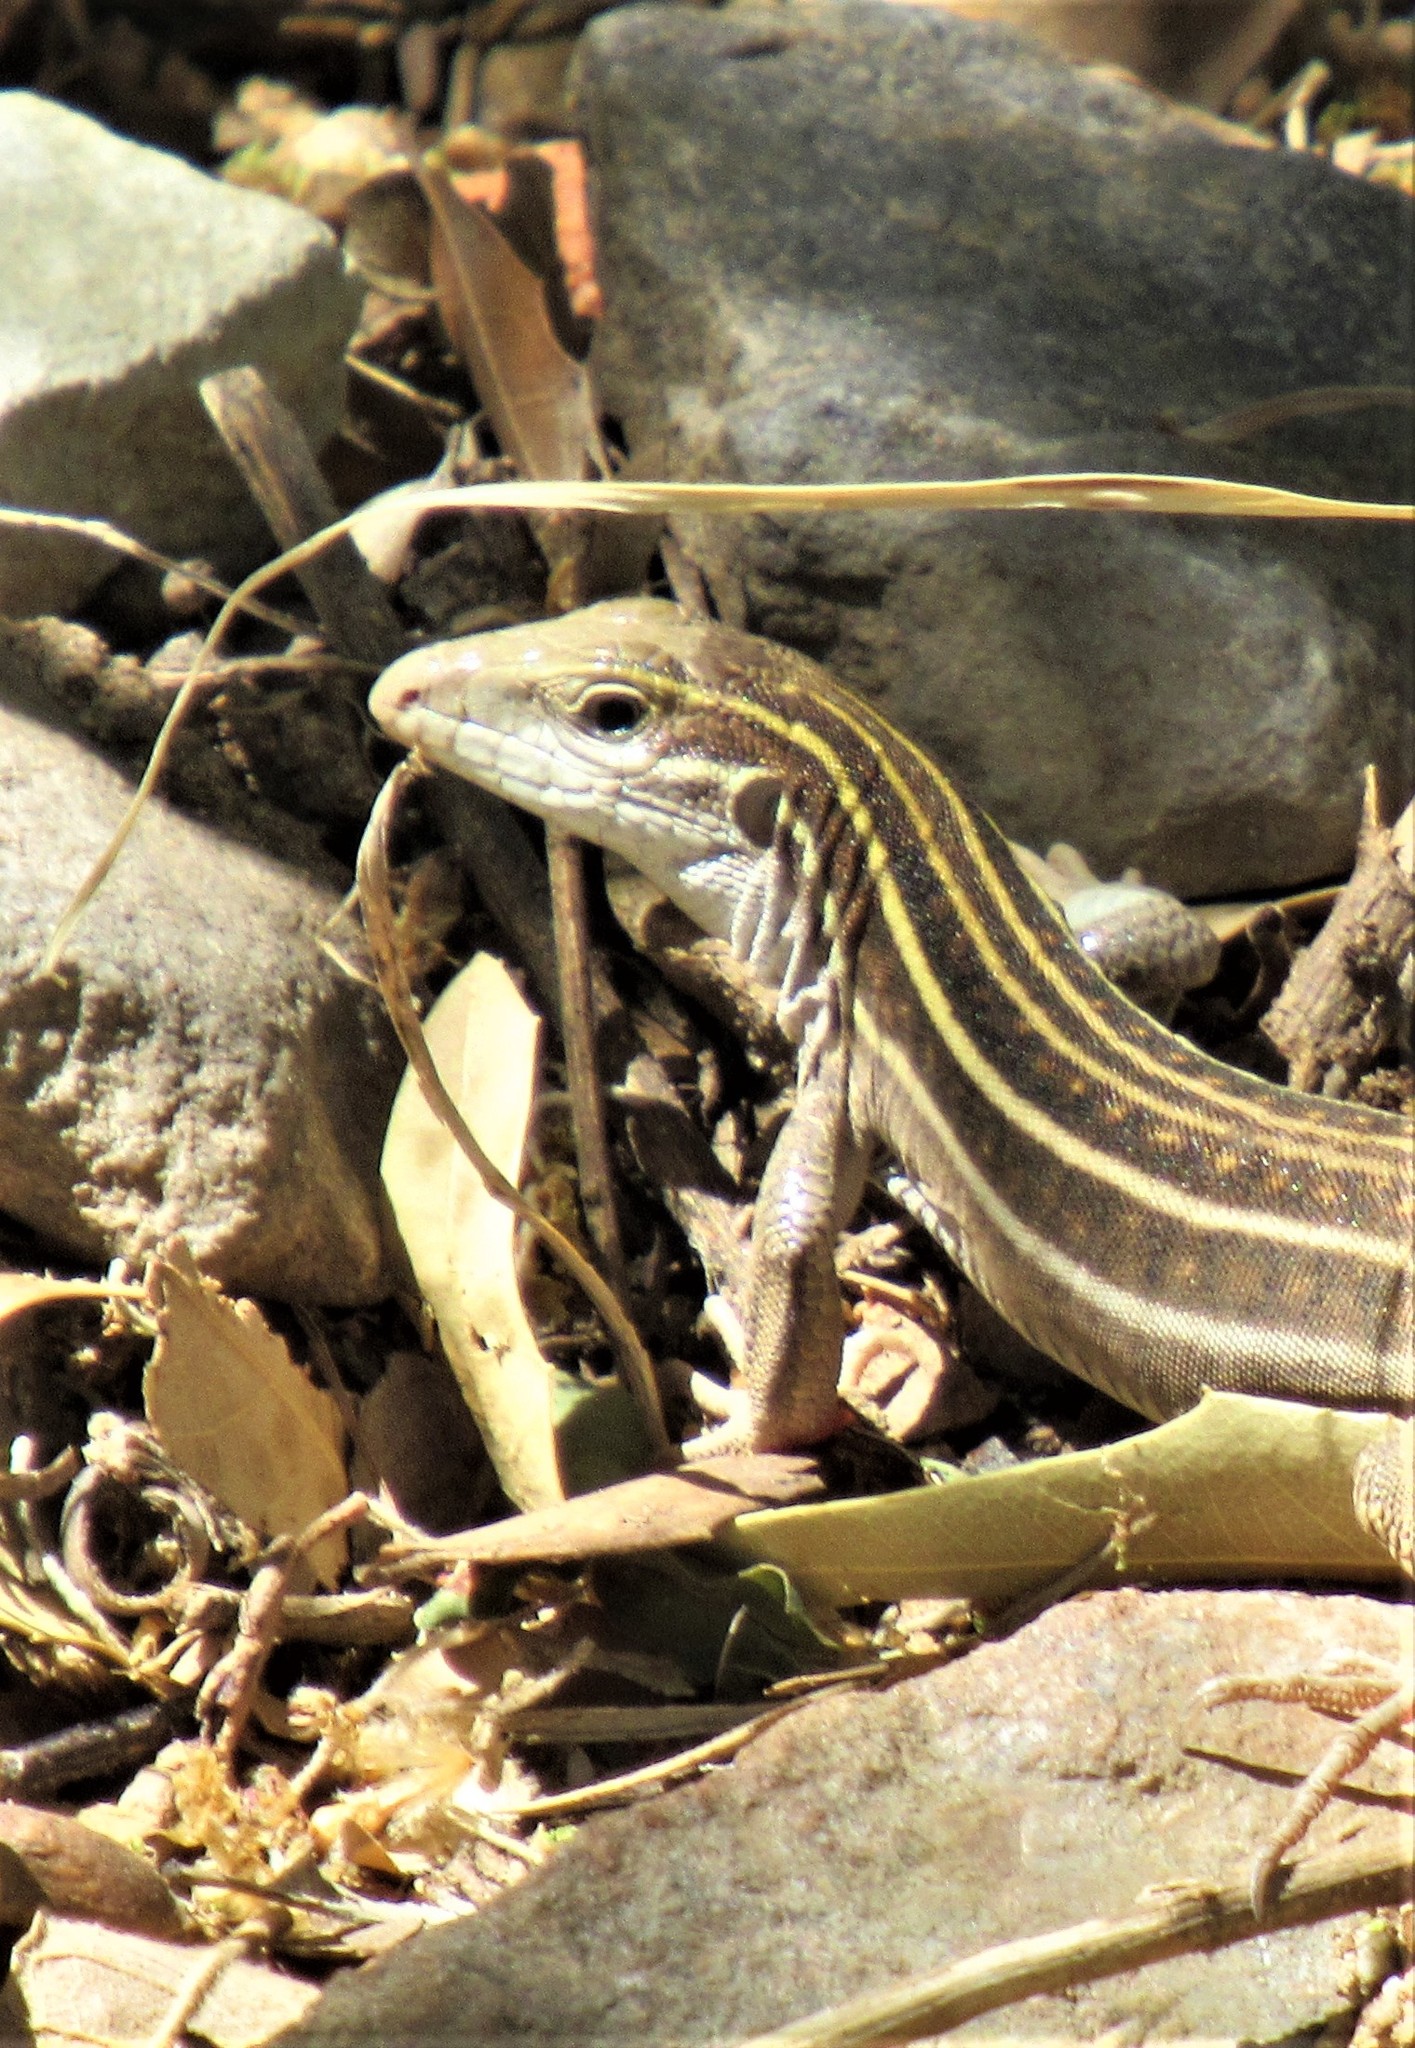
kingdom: Animalia
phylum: Chordata
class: Squamata
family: Teiidae
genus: Aspidoscelis
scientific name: Aspidoscelis sonorae
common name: Sonoran spotted whiptail
